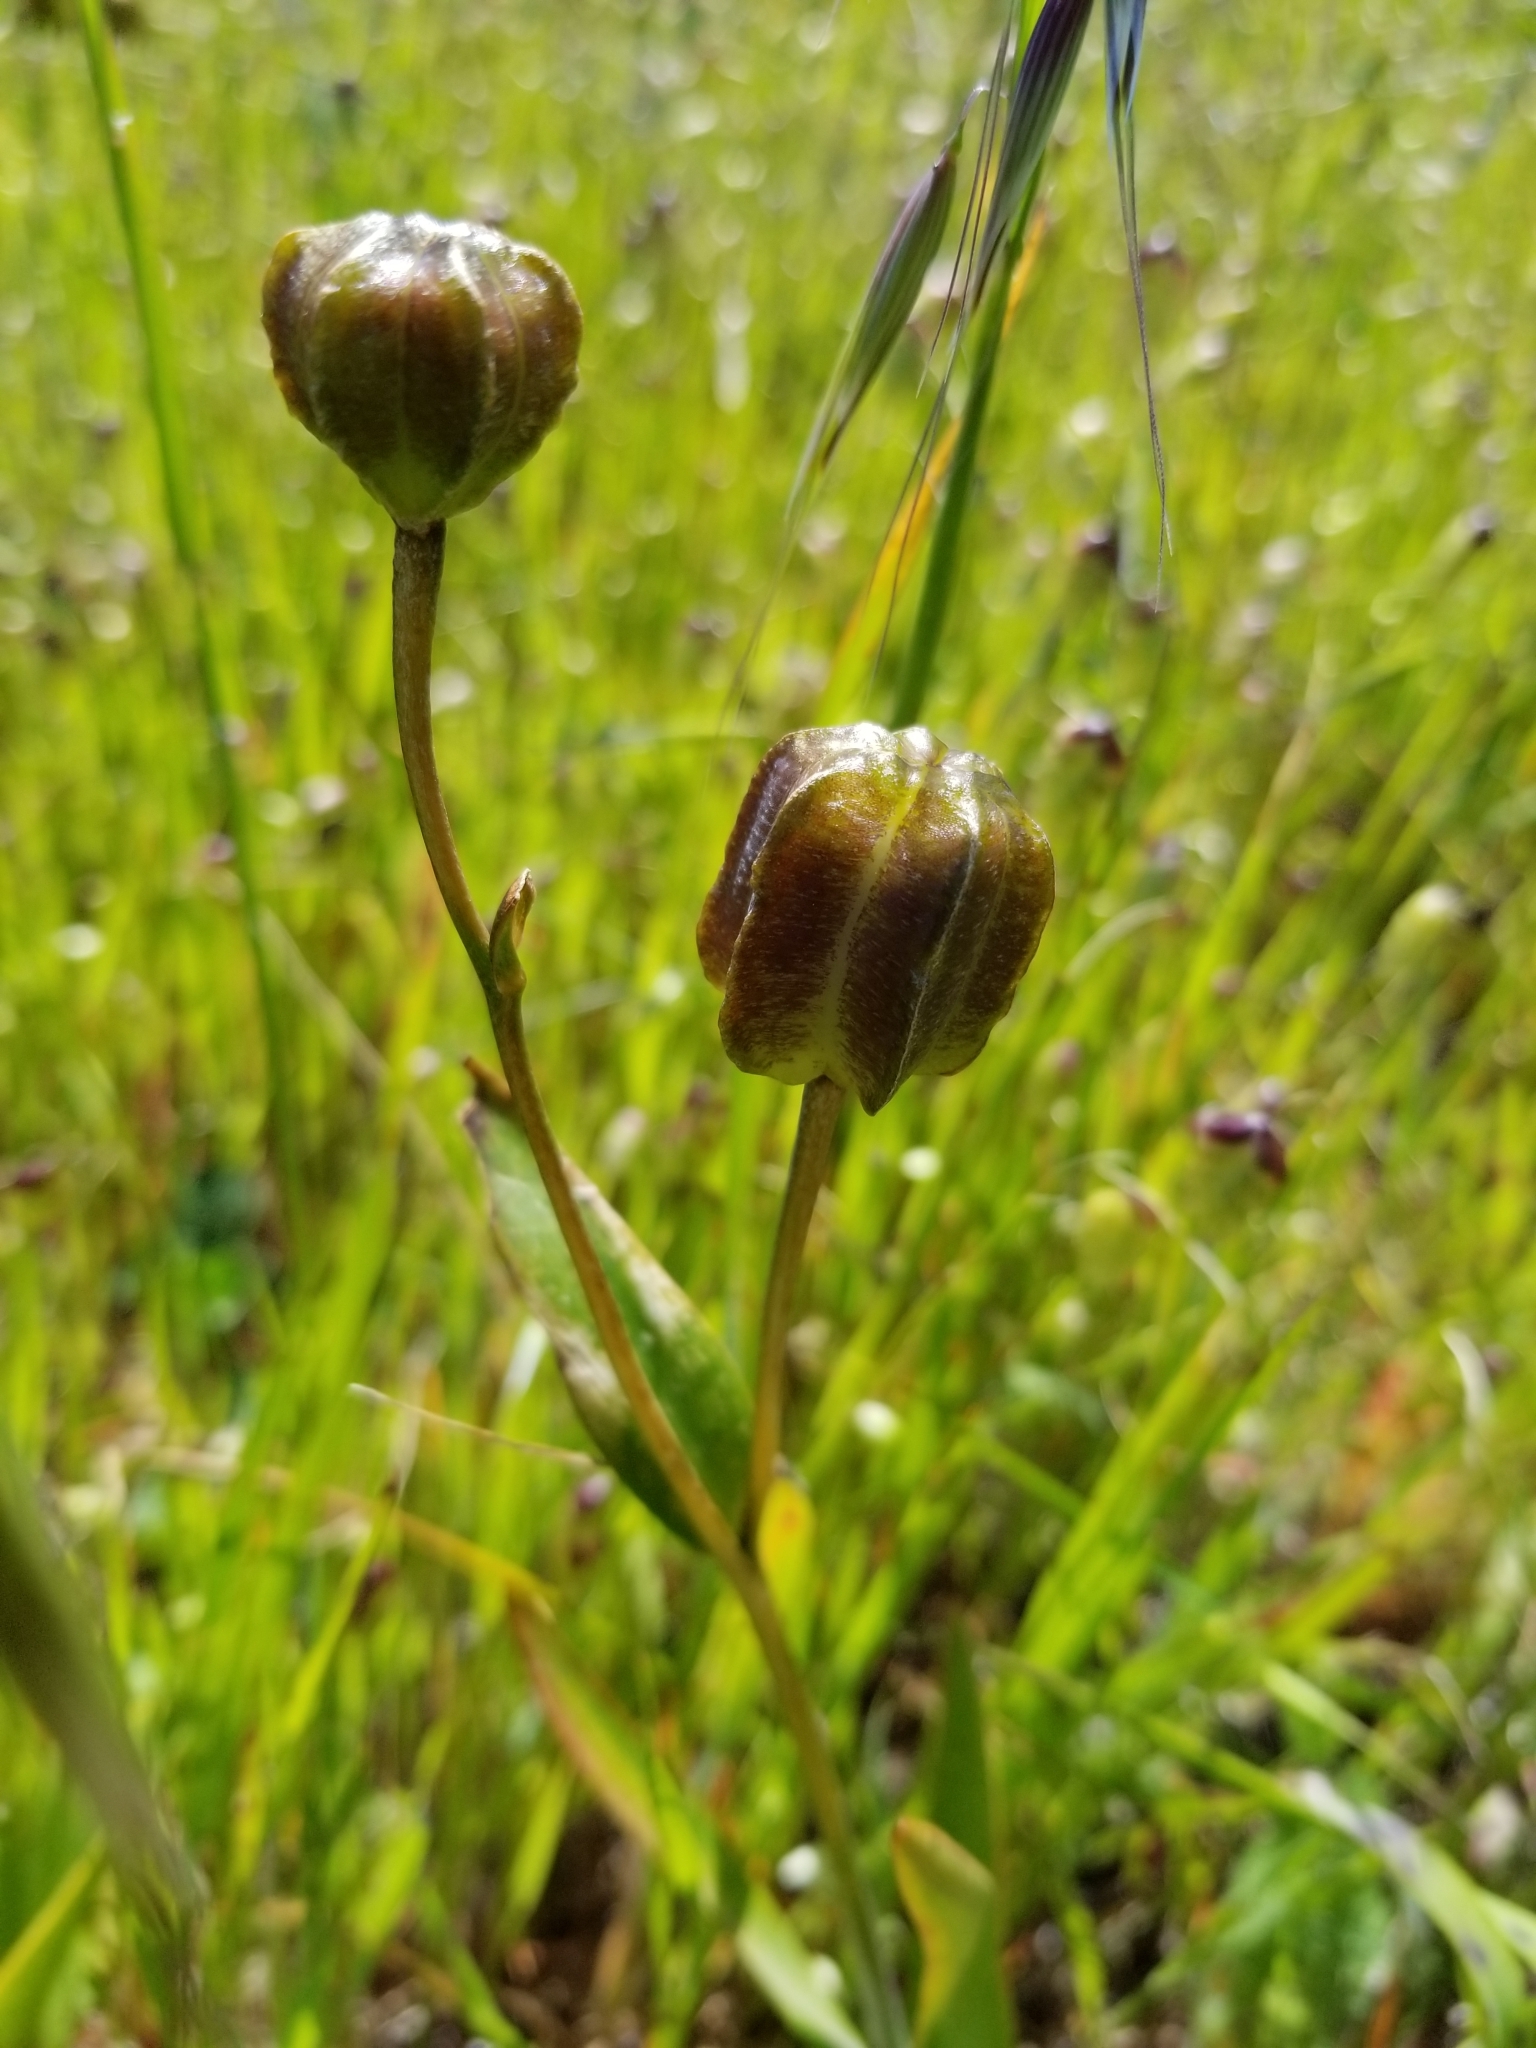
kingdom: Plantae
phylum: Tracheophyta
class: Liliopsida
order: Liliales
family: Liliaceae
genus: Fritillaria
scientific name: Fritillaria affinis
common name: Ojai fritillary
